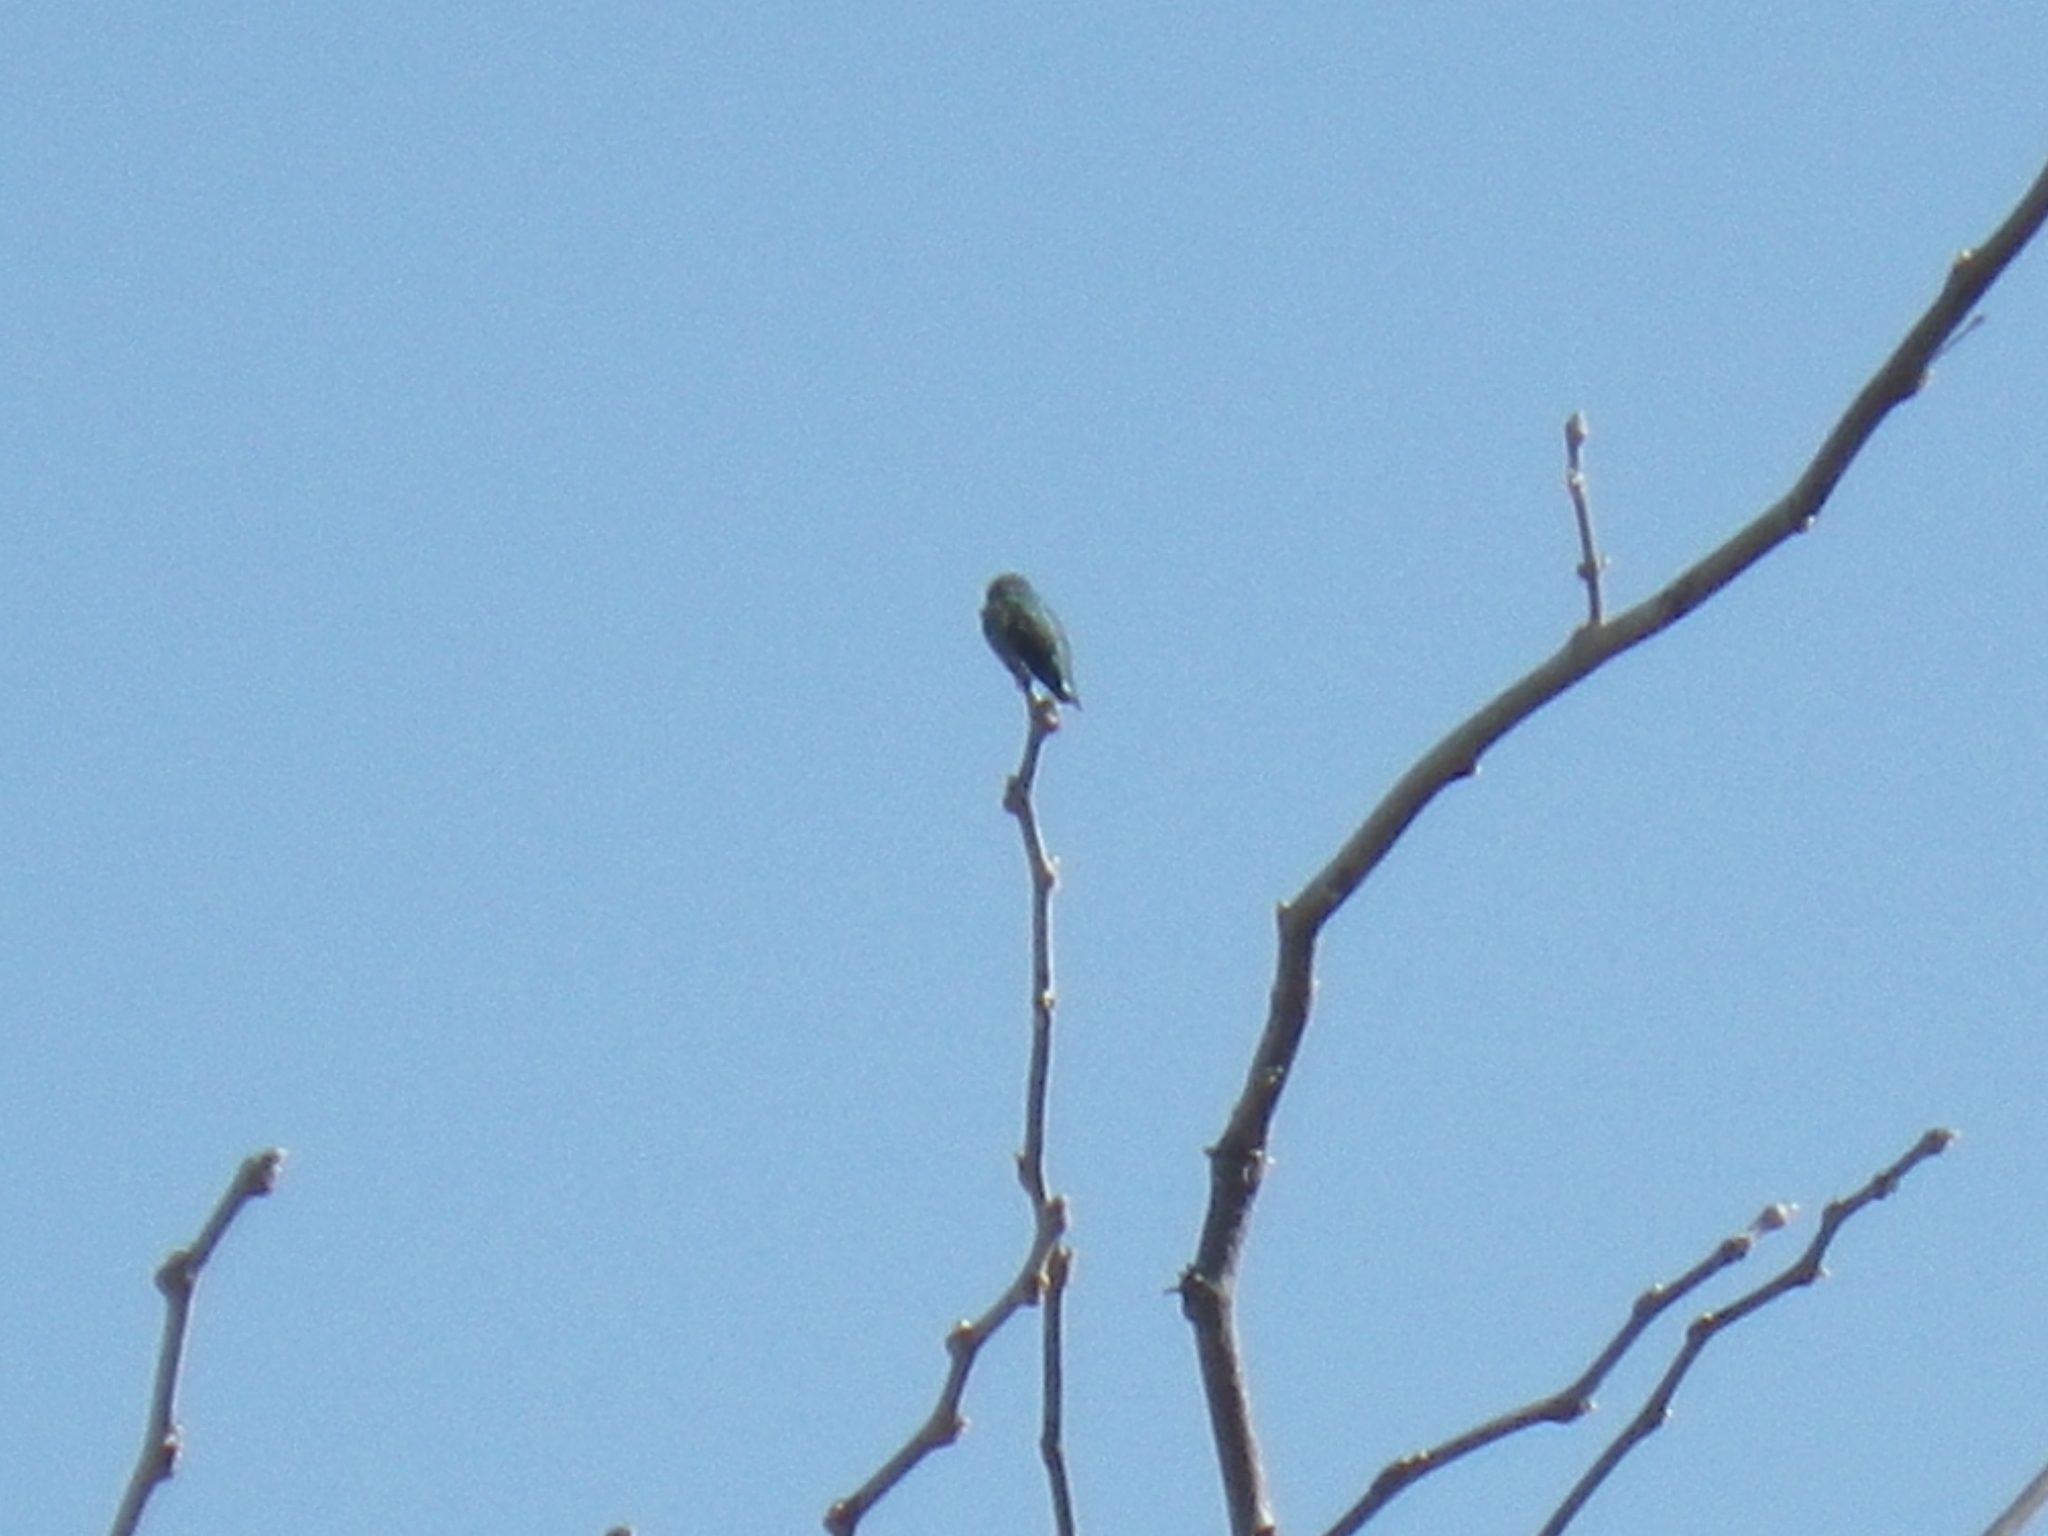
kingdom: Animalia
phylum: Chordata
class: Aves
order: Apodiformes
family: Trochilidae
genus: Calypte
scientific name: Calypte anna
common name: Anna's hummingbird
